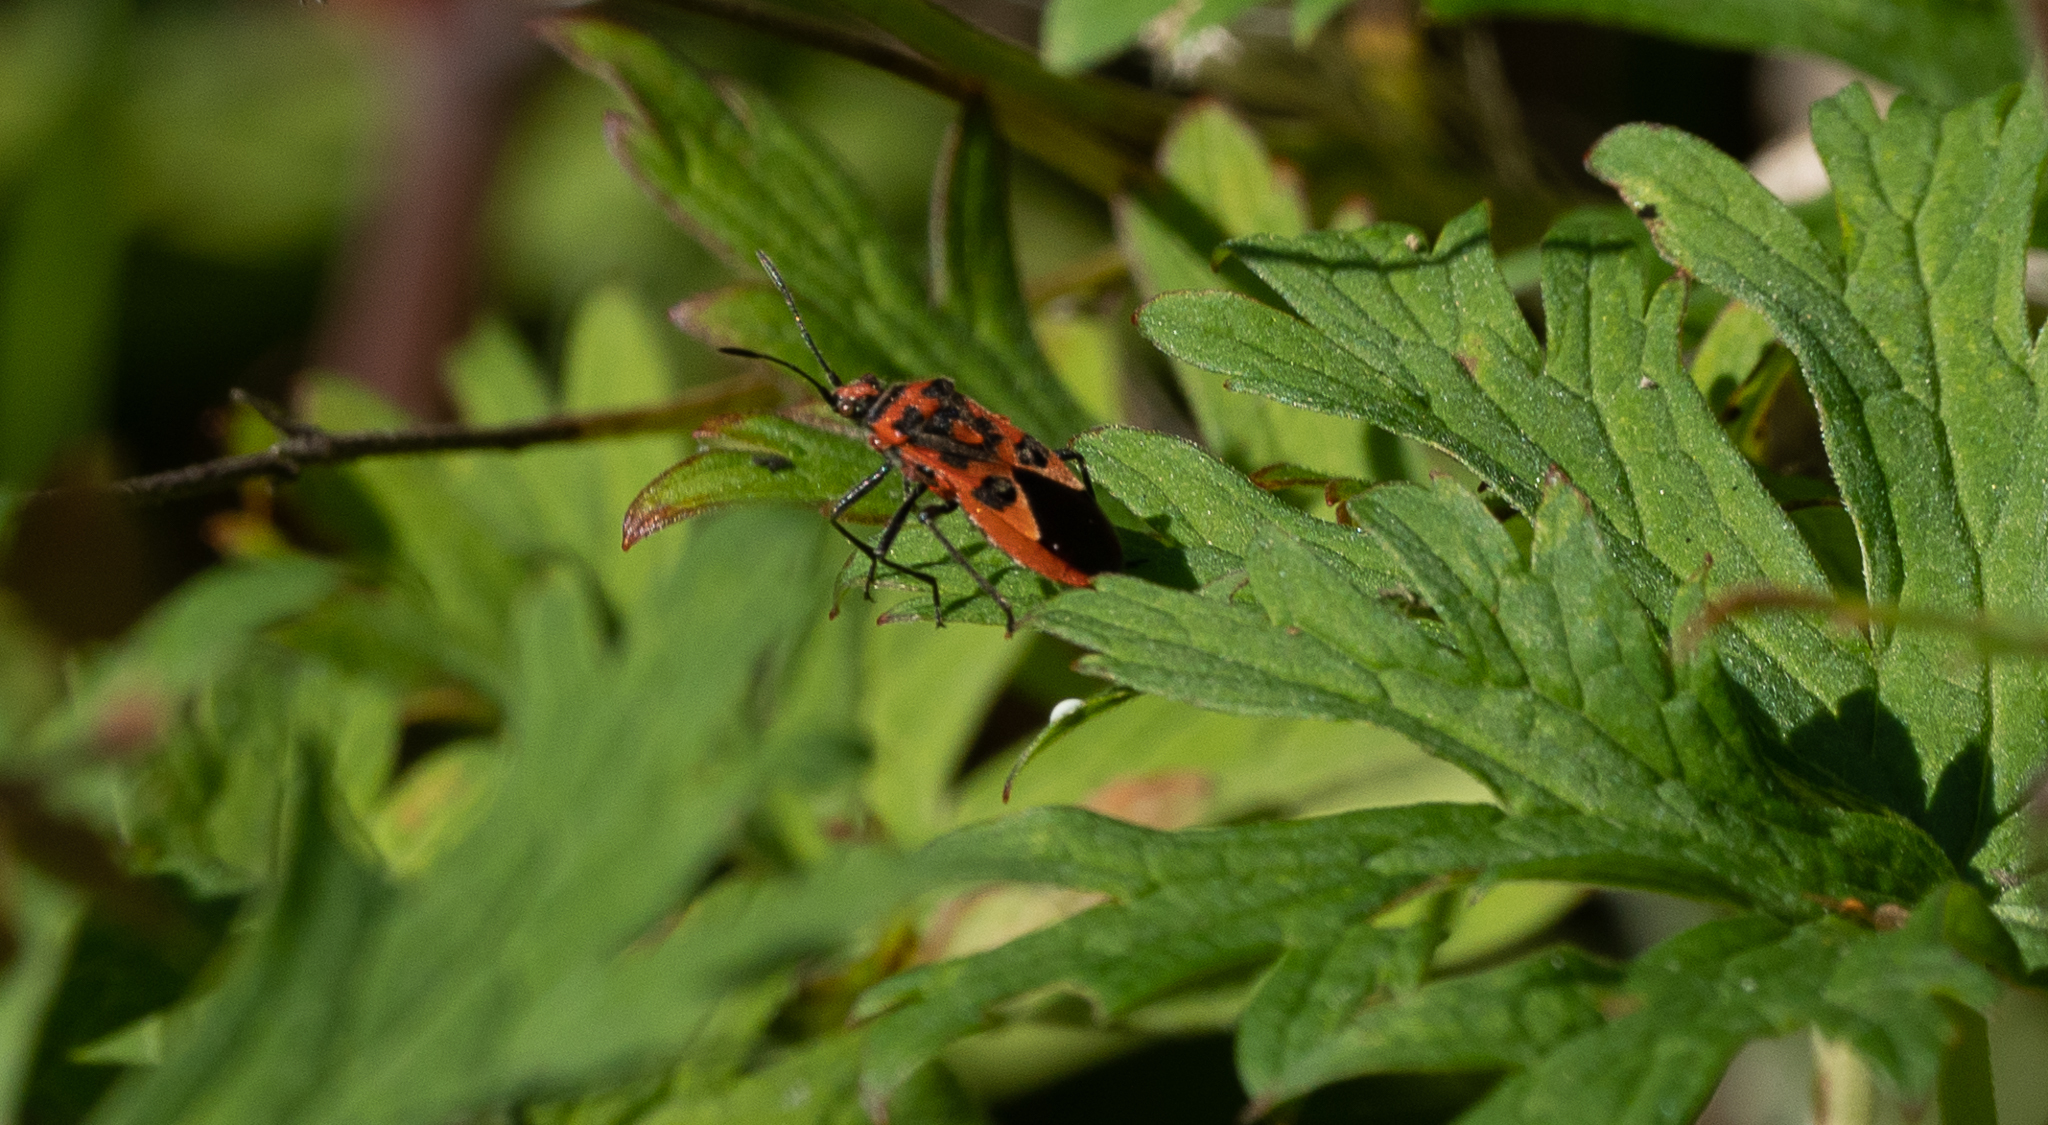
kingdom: Animalia
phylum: Arthropoda
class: Insecta
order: Hemiptera
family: Rhopalidae
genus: Corizus
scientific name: Corizus hyoscyami
